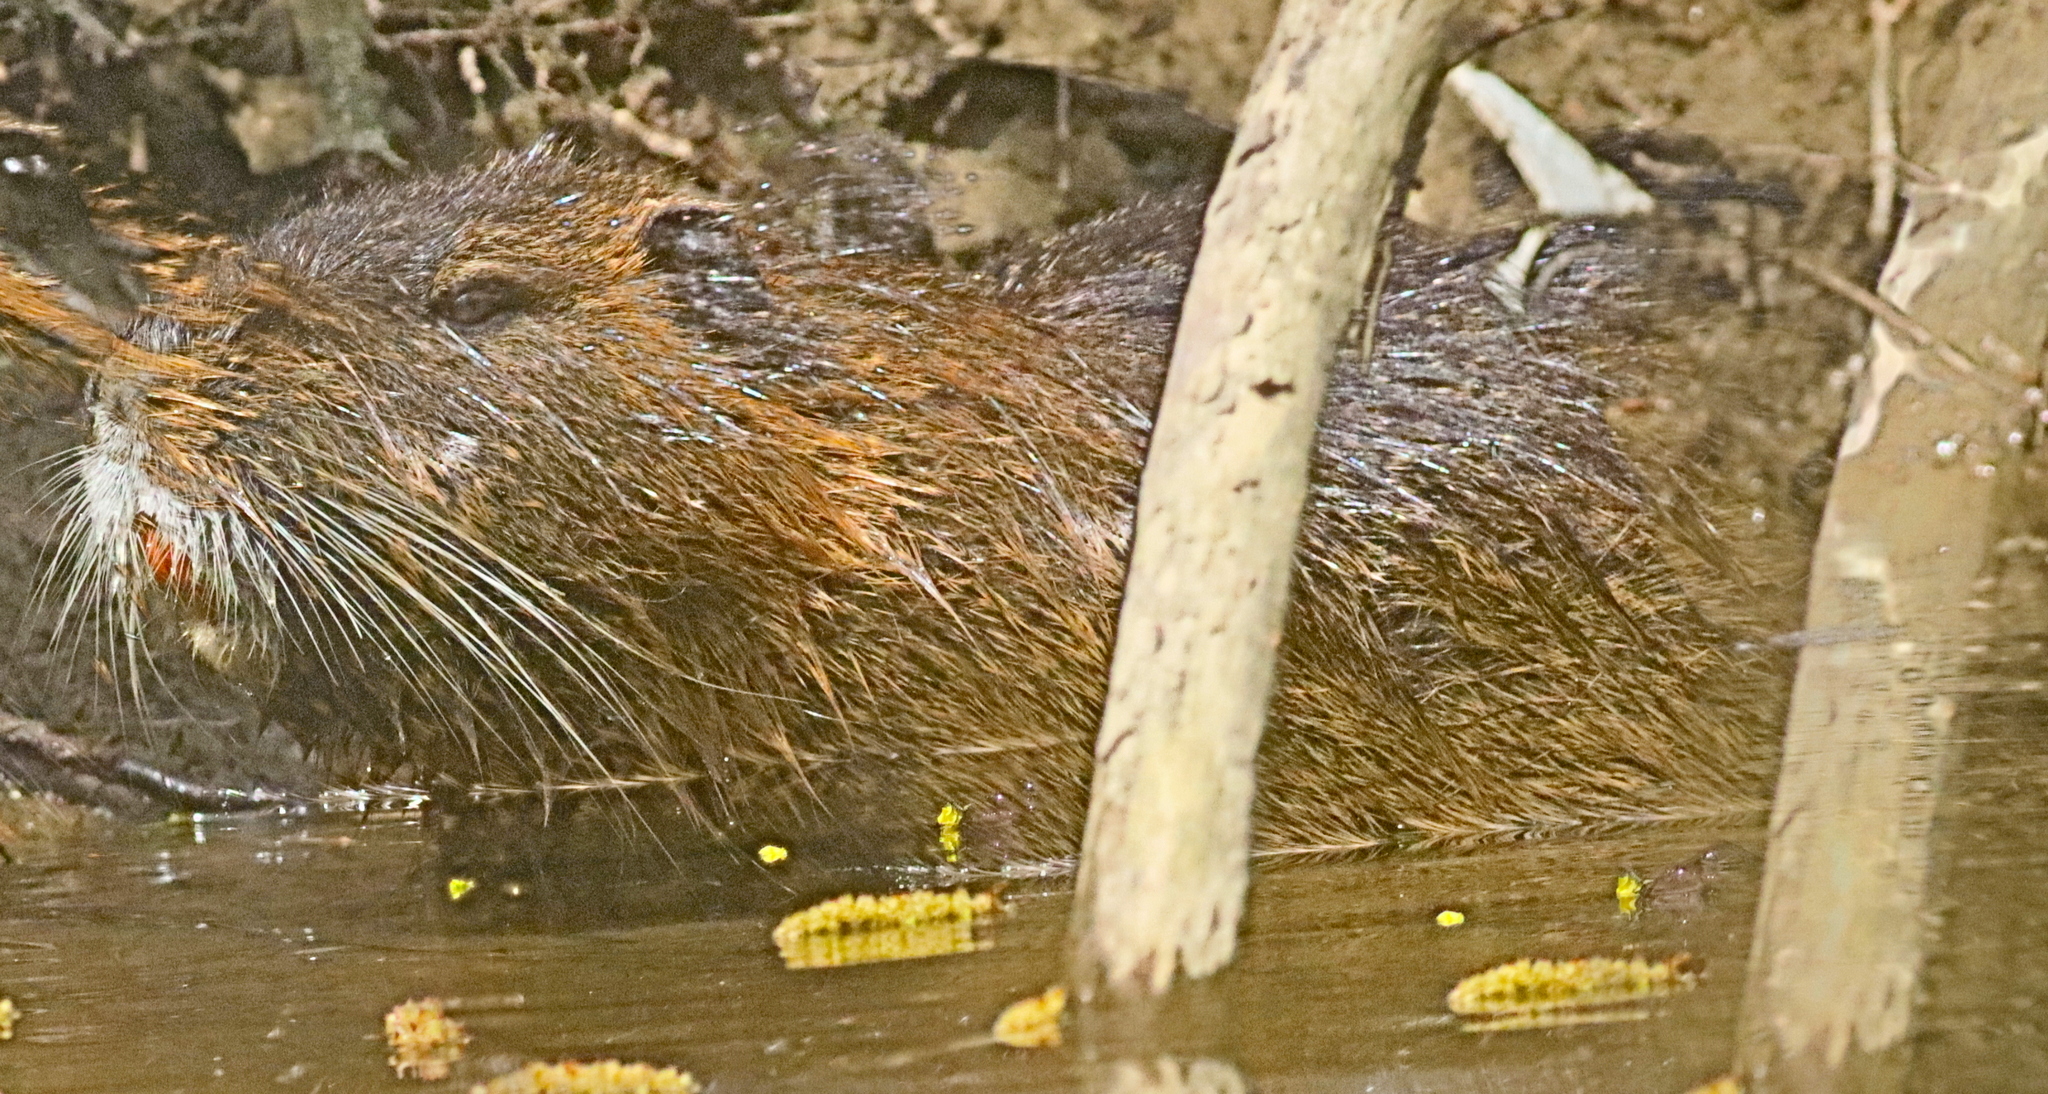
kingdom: Animalia
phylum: Chordata
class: Mammalia
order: Rodentia
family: Myocastoridae
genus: Myocastor
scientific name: Myocastor coypus
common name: Coypu
